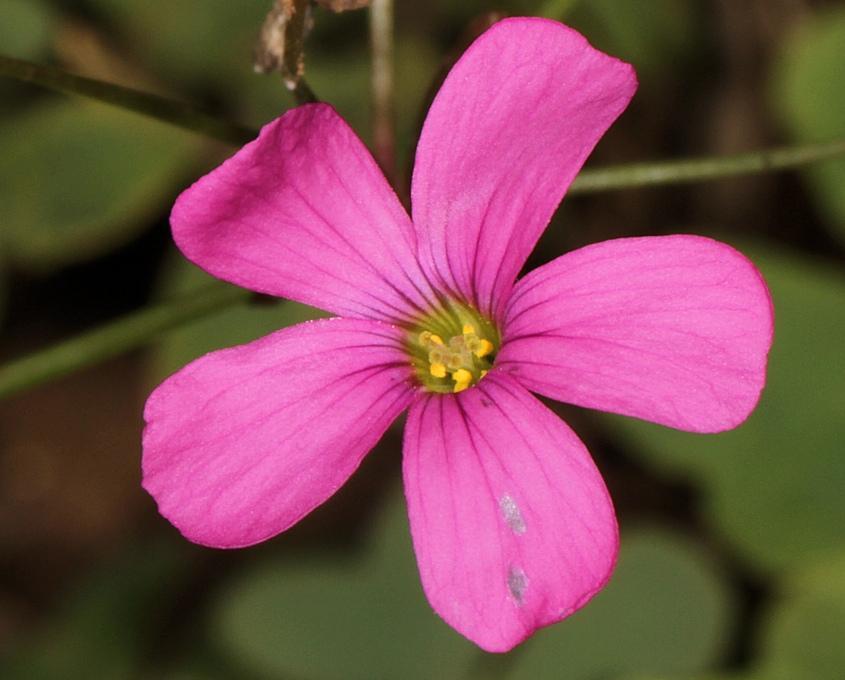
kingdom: Plantae
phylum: Tracheophyta
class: Magnoliopsida
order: Oxalidales
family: Oxalidaceae
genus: Oxalis
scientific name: Oxalis semiloba
